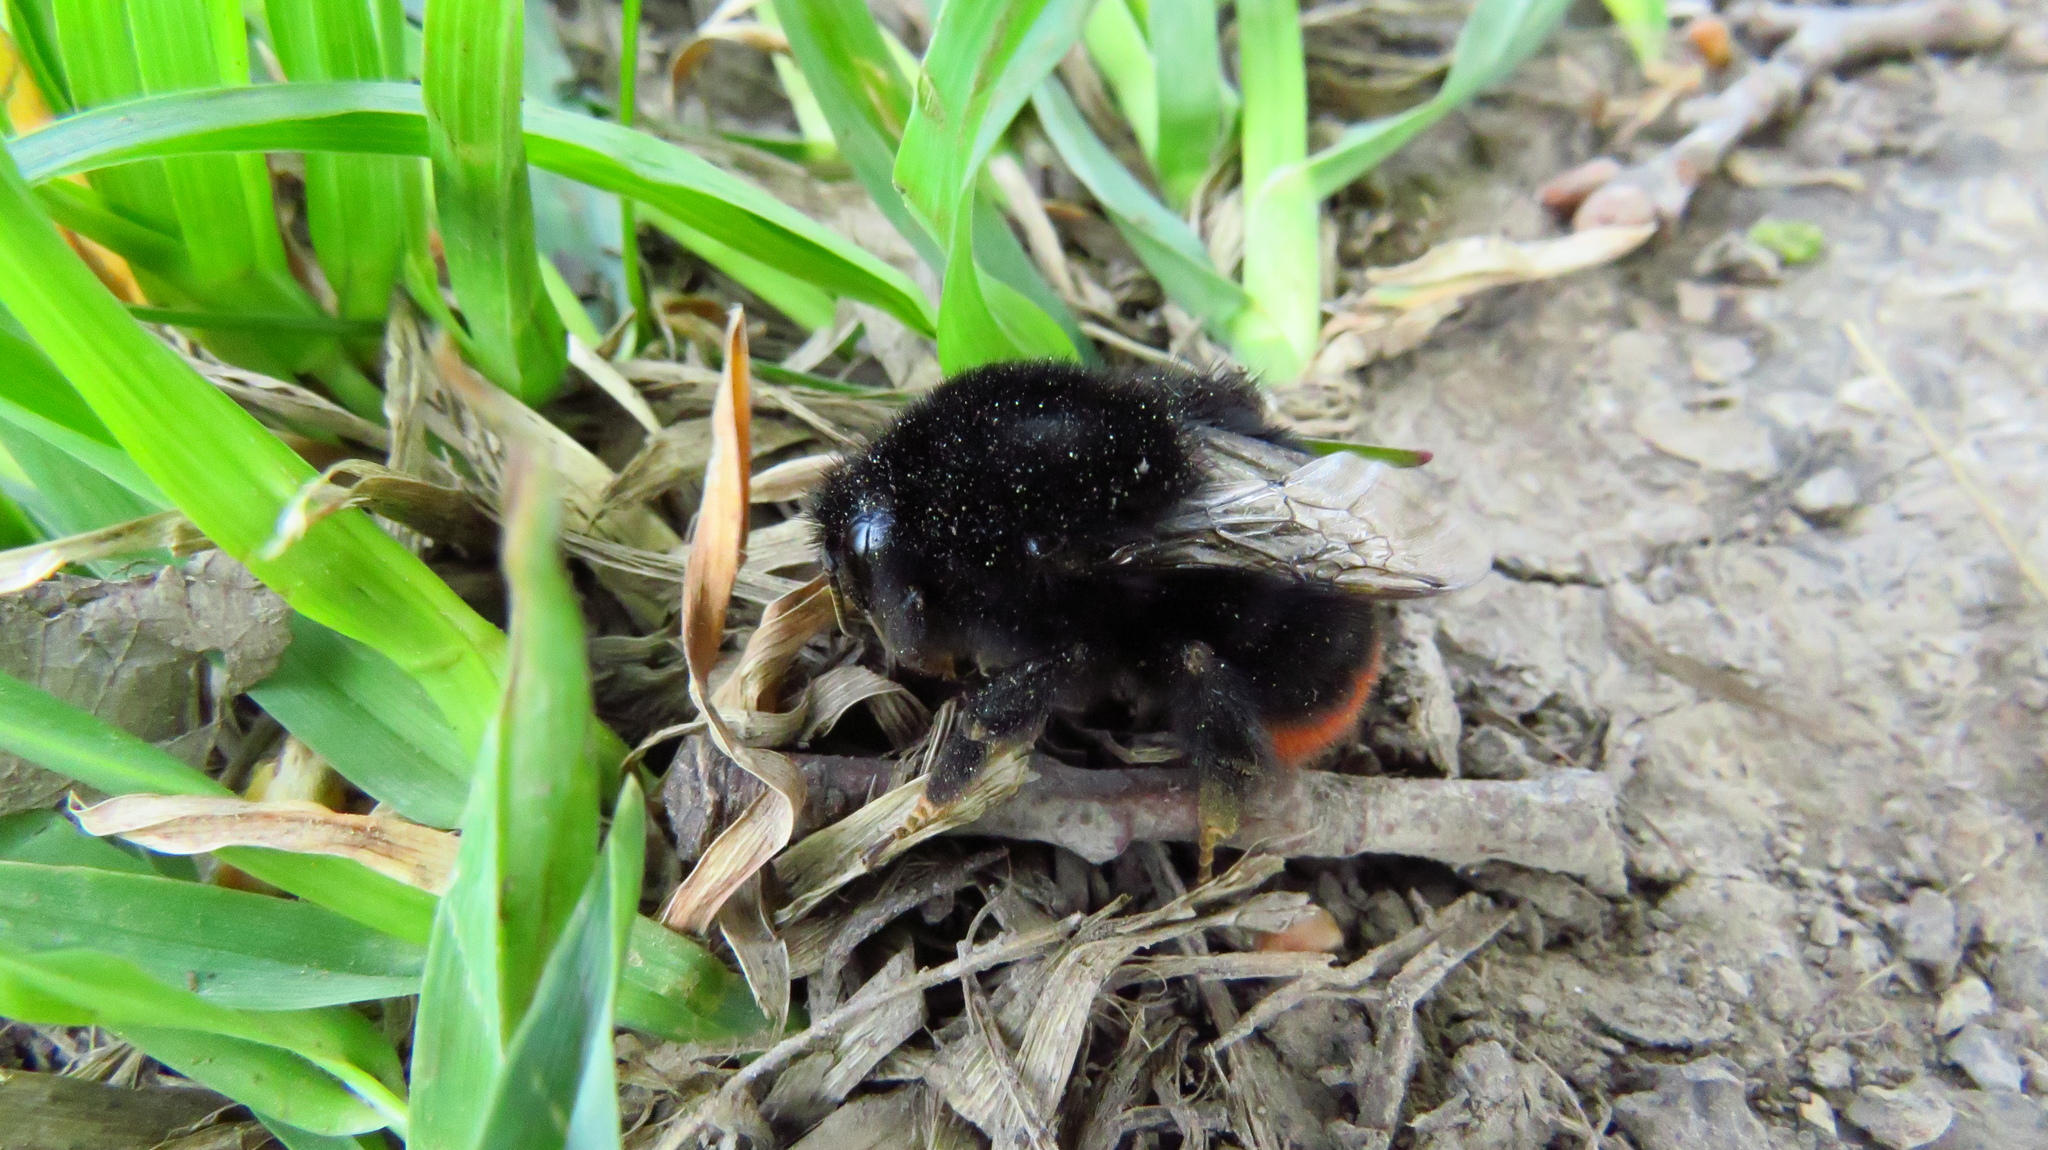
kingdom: Animalia
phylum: Arthropoda
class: Insecta
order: Hymenoptera
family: Apidae
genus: Bombus
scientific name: Bombus lapidarius
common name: Large red-tailed humble-bee
